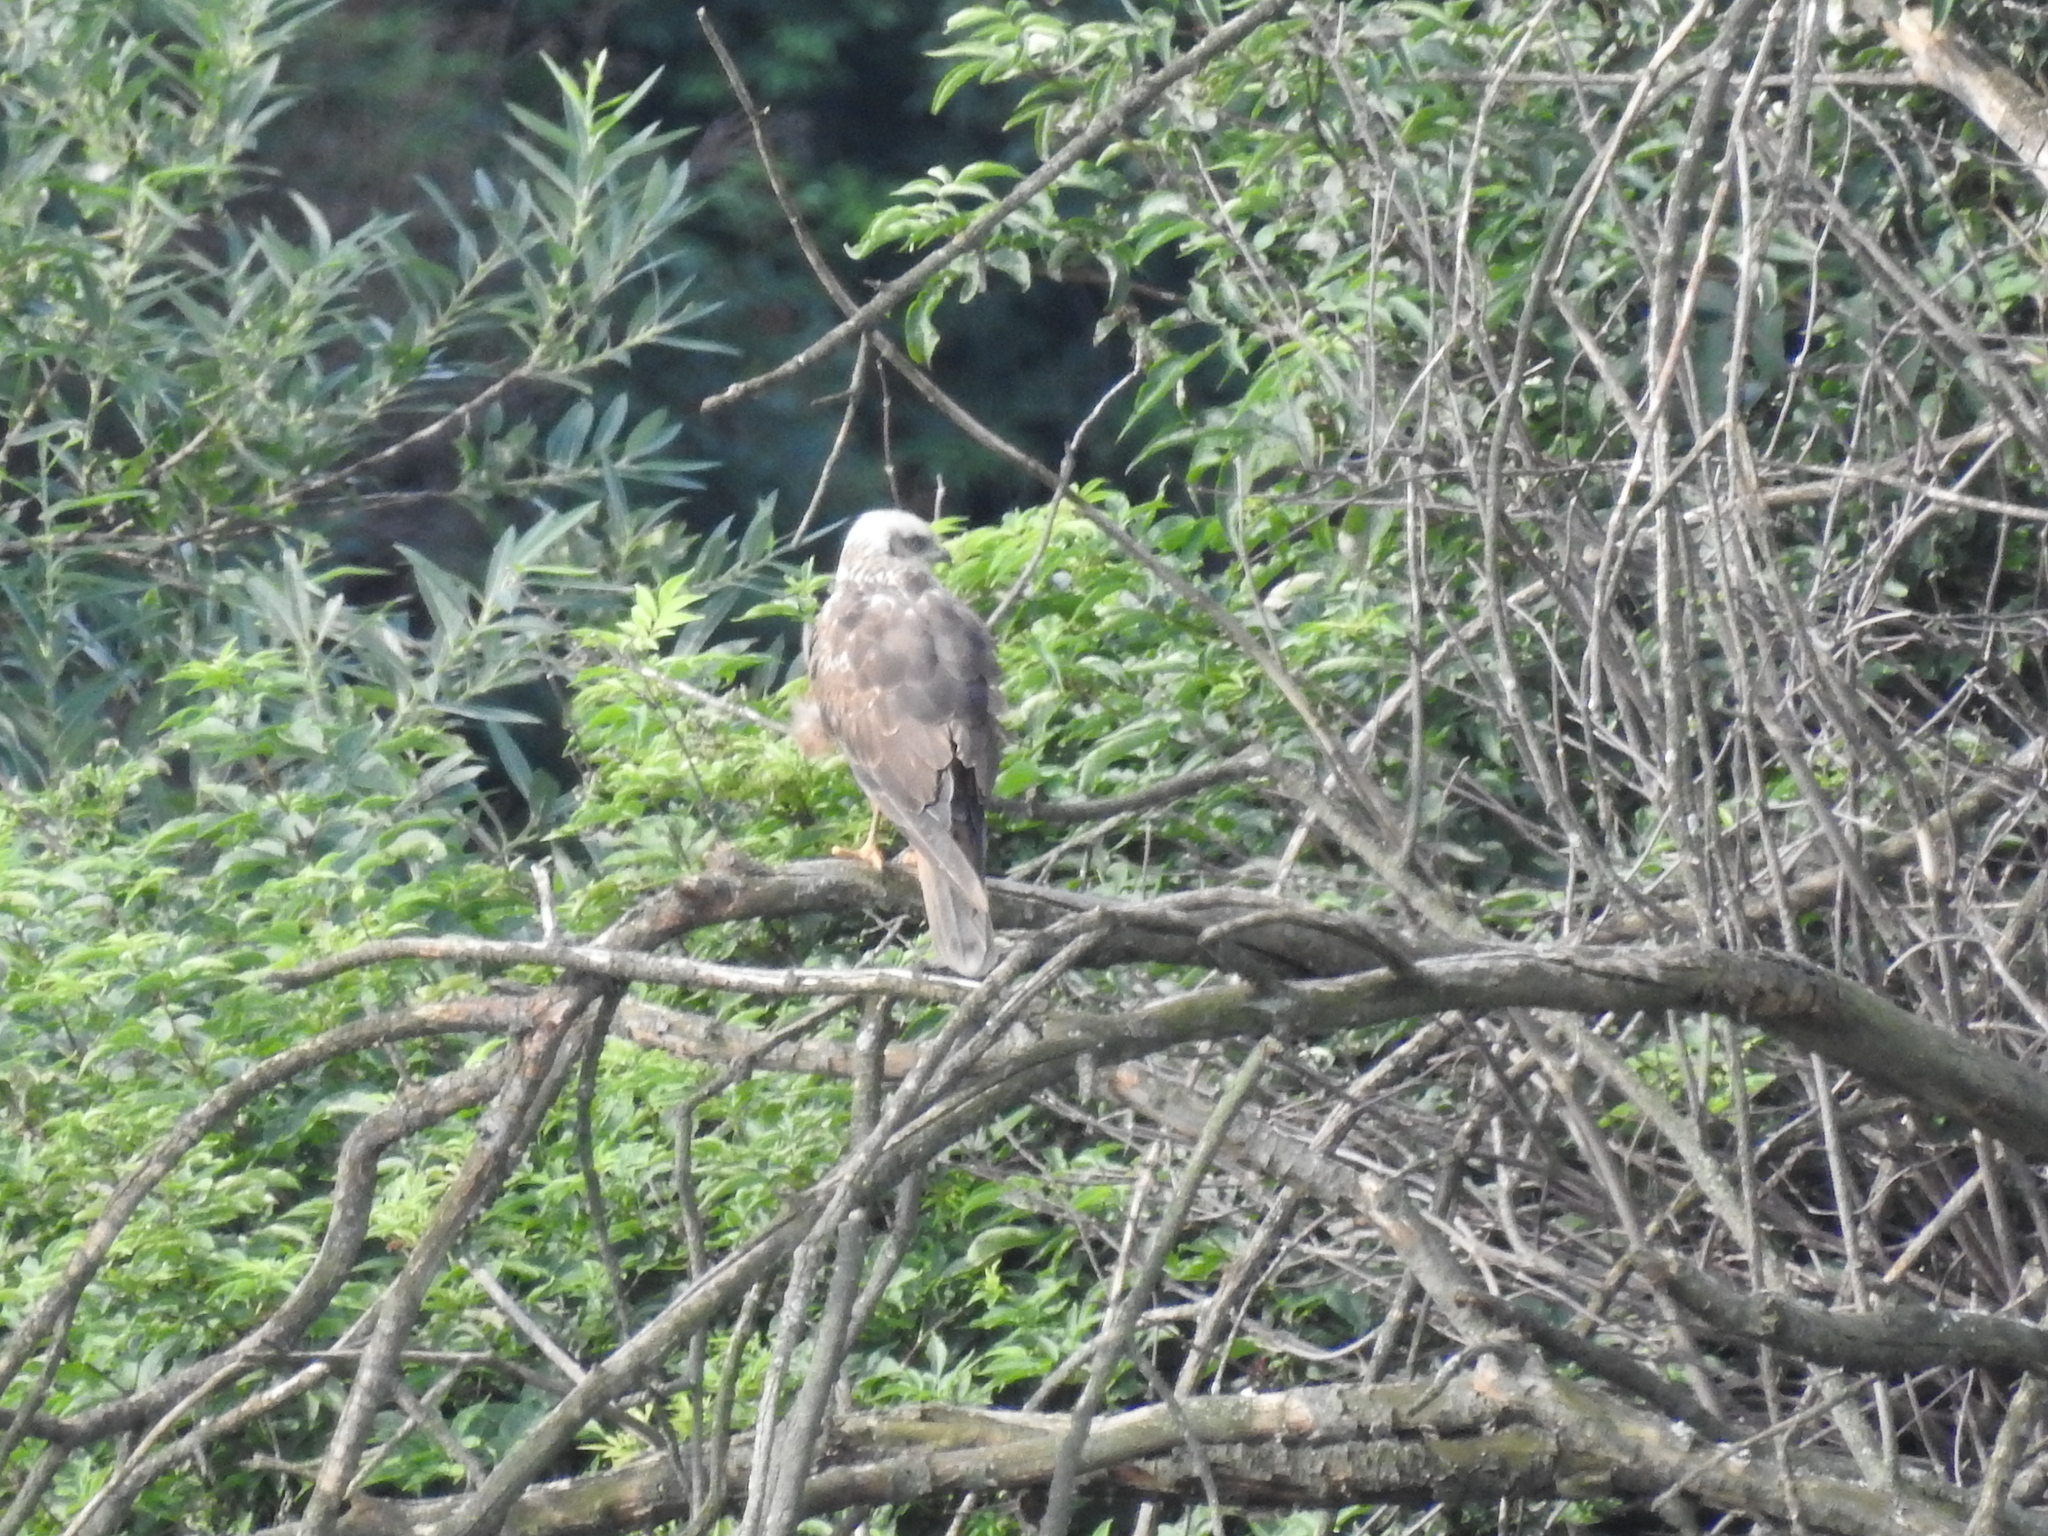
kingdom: Animalia
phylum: Chordata
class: Aves
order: Accipitriformes
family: Accipitridae
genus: Circus
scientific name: Circus aeruginosus
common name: Western marsh harrier
